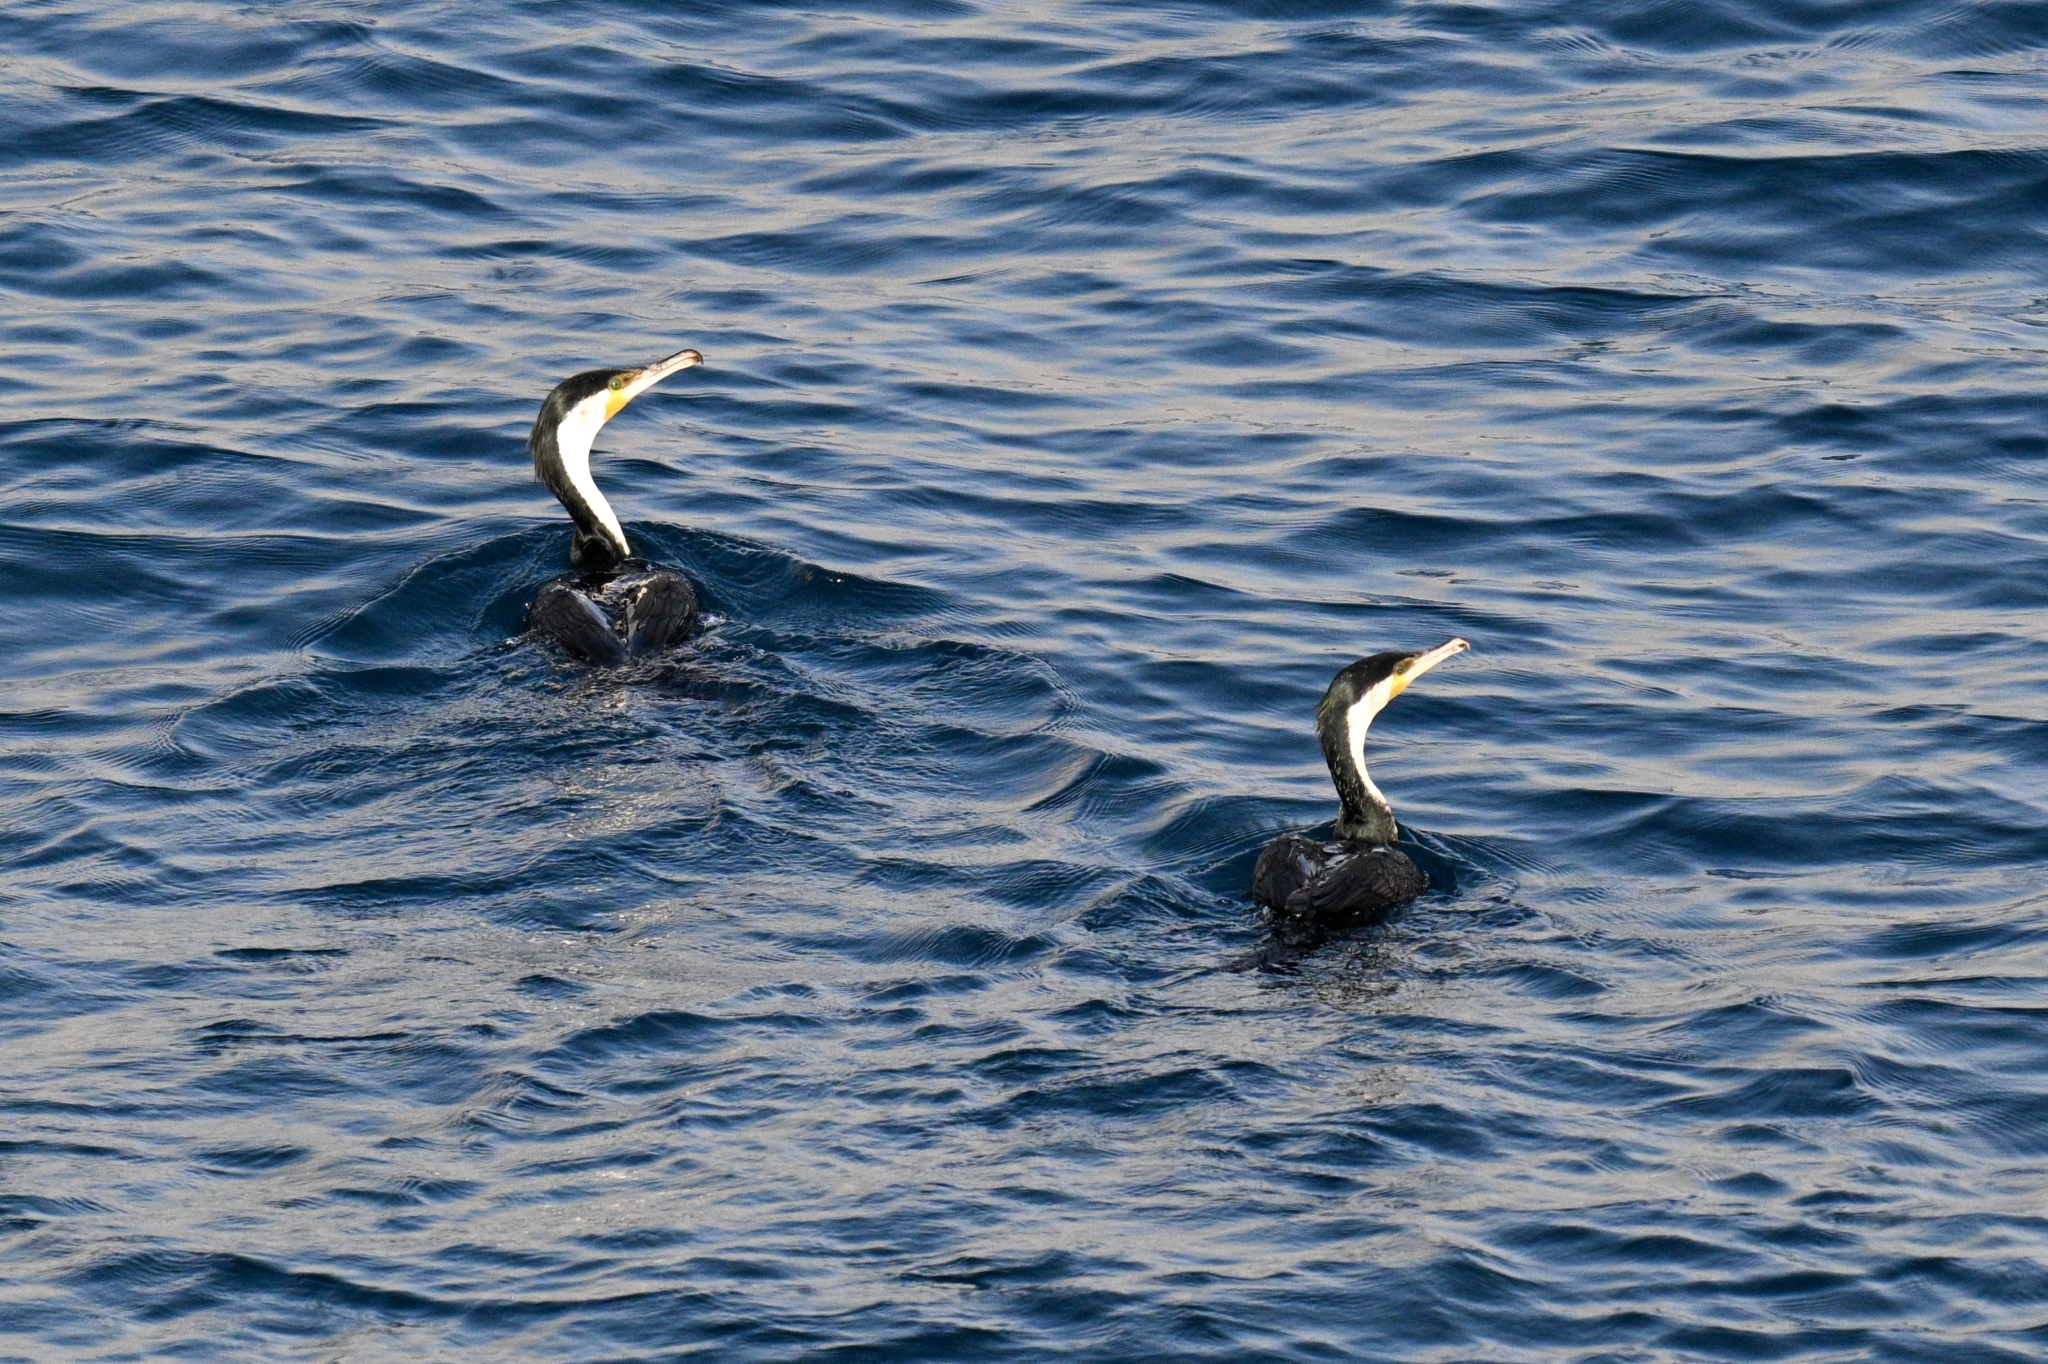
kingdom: Animalia
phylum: Chordata
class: Aves
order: Suliformes
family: Phalacrocoracidae
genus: Phalacrocorax
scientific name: Phalacrocorax carbo
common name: Great cormorant
